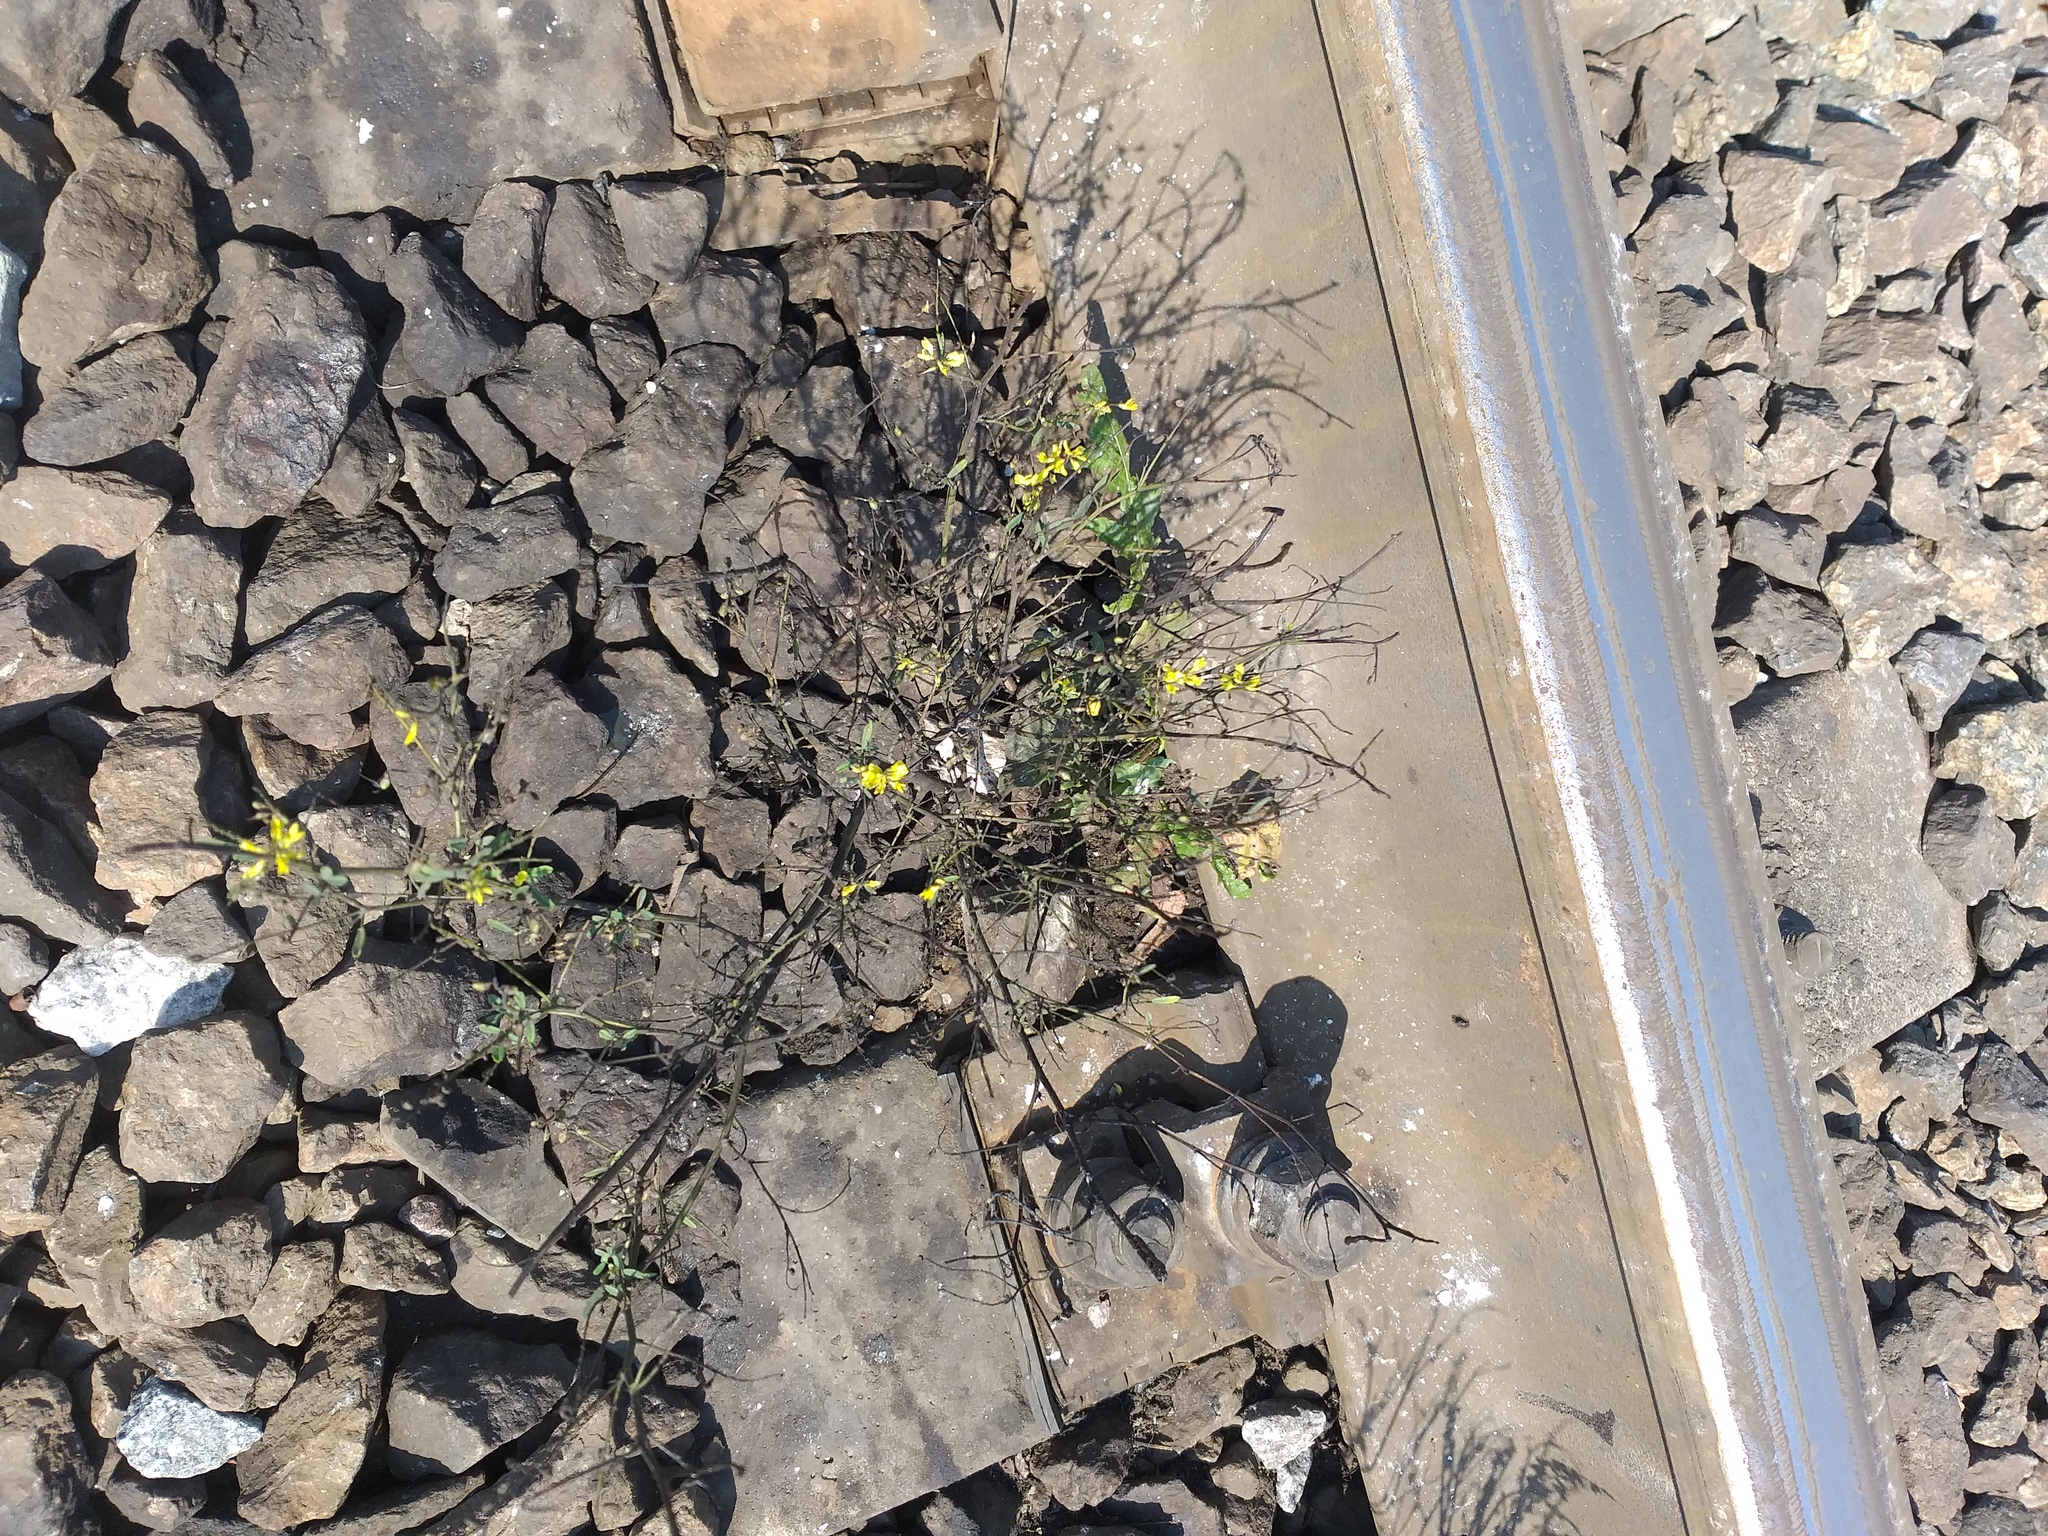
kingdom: Plantae
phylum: Tracheophyta
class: Magnoliopsida
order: Fabales
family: Fabaceae
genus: Melilotus
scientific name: Melilotus officinalis
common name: Sweetclover
